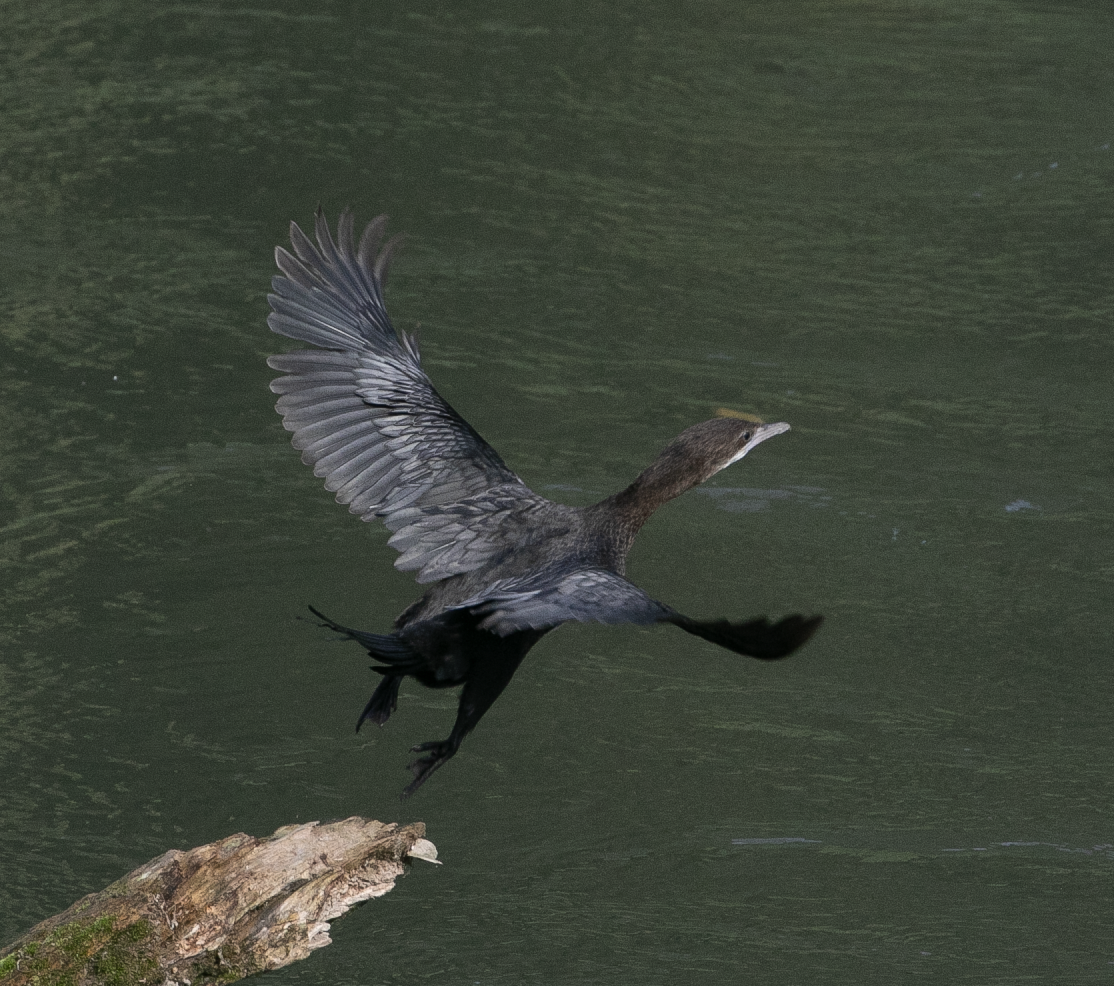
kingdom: Animalia
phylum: Chordata
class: Aves
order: Suliformes
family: Phalacrocoracidae
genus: Microcarbo
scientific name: Microcarbo pygmaeus
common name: Pygmy cormorant
